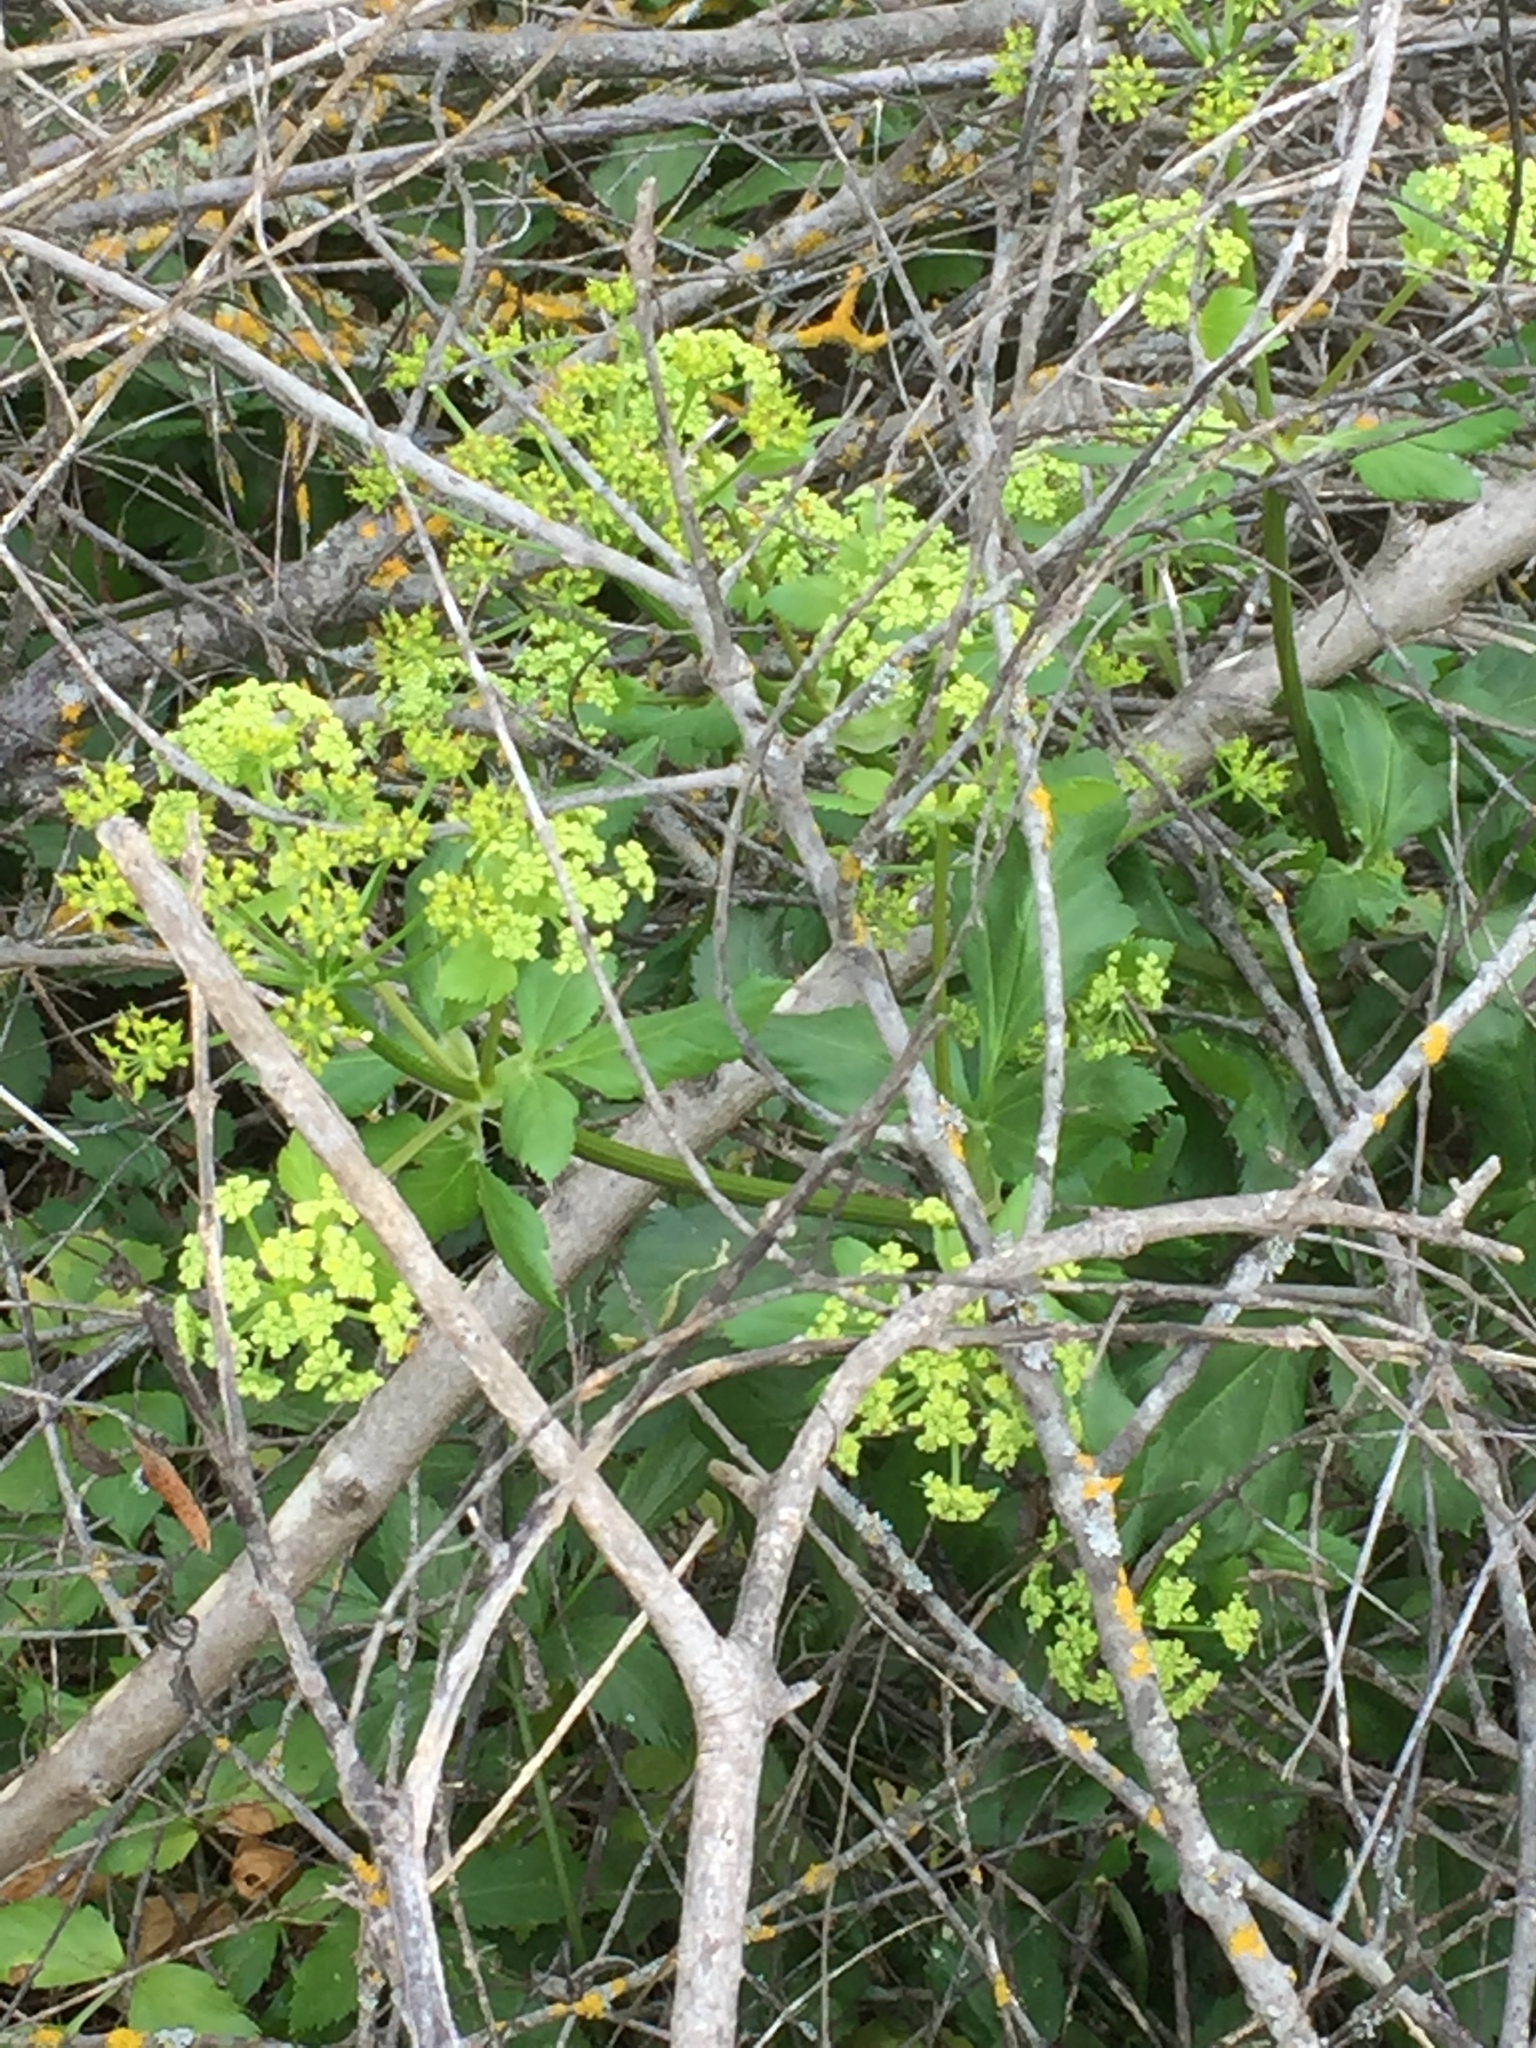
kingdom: Plantae
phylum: Tracheophyta
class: Magnoliopsida
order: Apiales
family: Apiaceae
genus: Smyrnium
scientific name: Smyrnium olusatrum
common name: Alexanders
